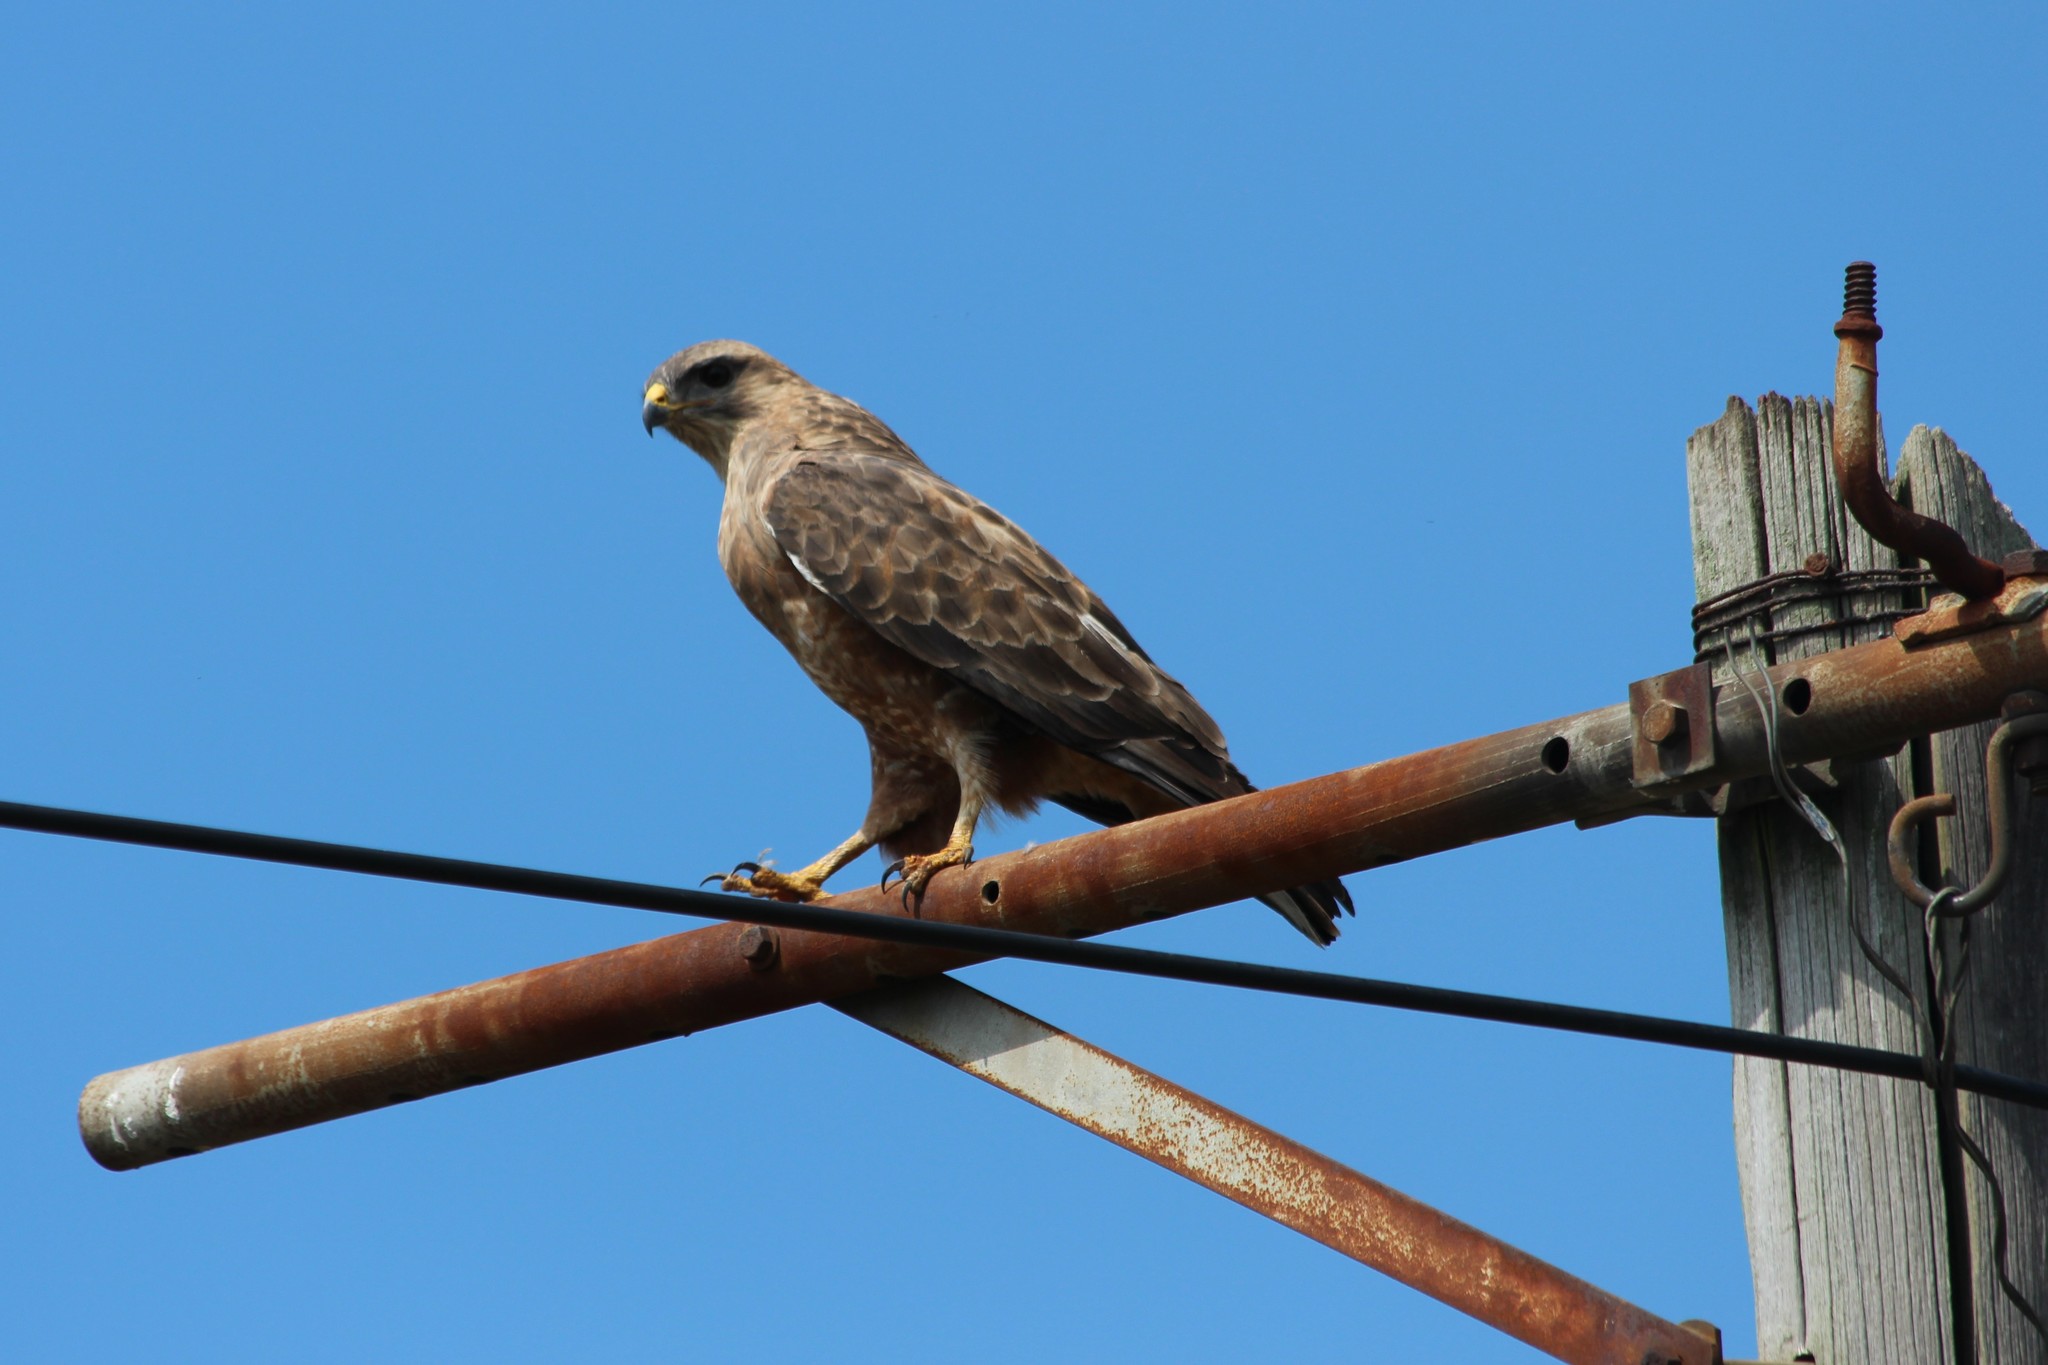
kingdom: Animalia
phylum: Chordata
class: Aves
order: Accipitriformes
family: Accipitridae
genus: Buteo
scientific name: Buteo buteo
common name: Common buzzard
